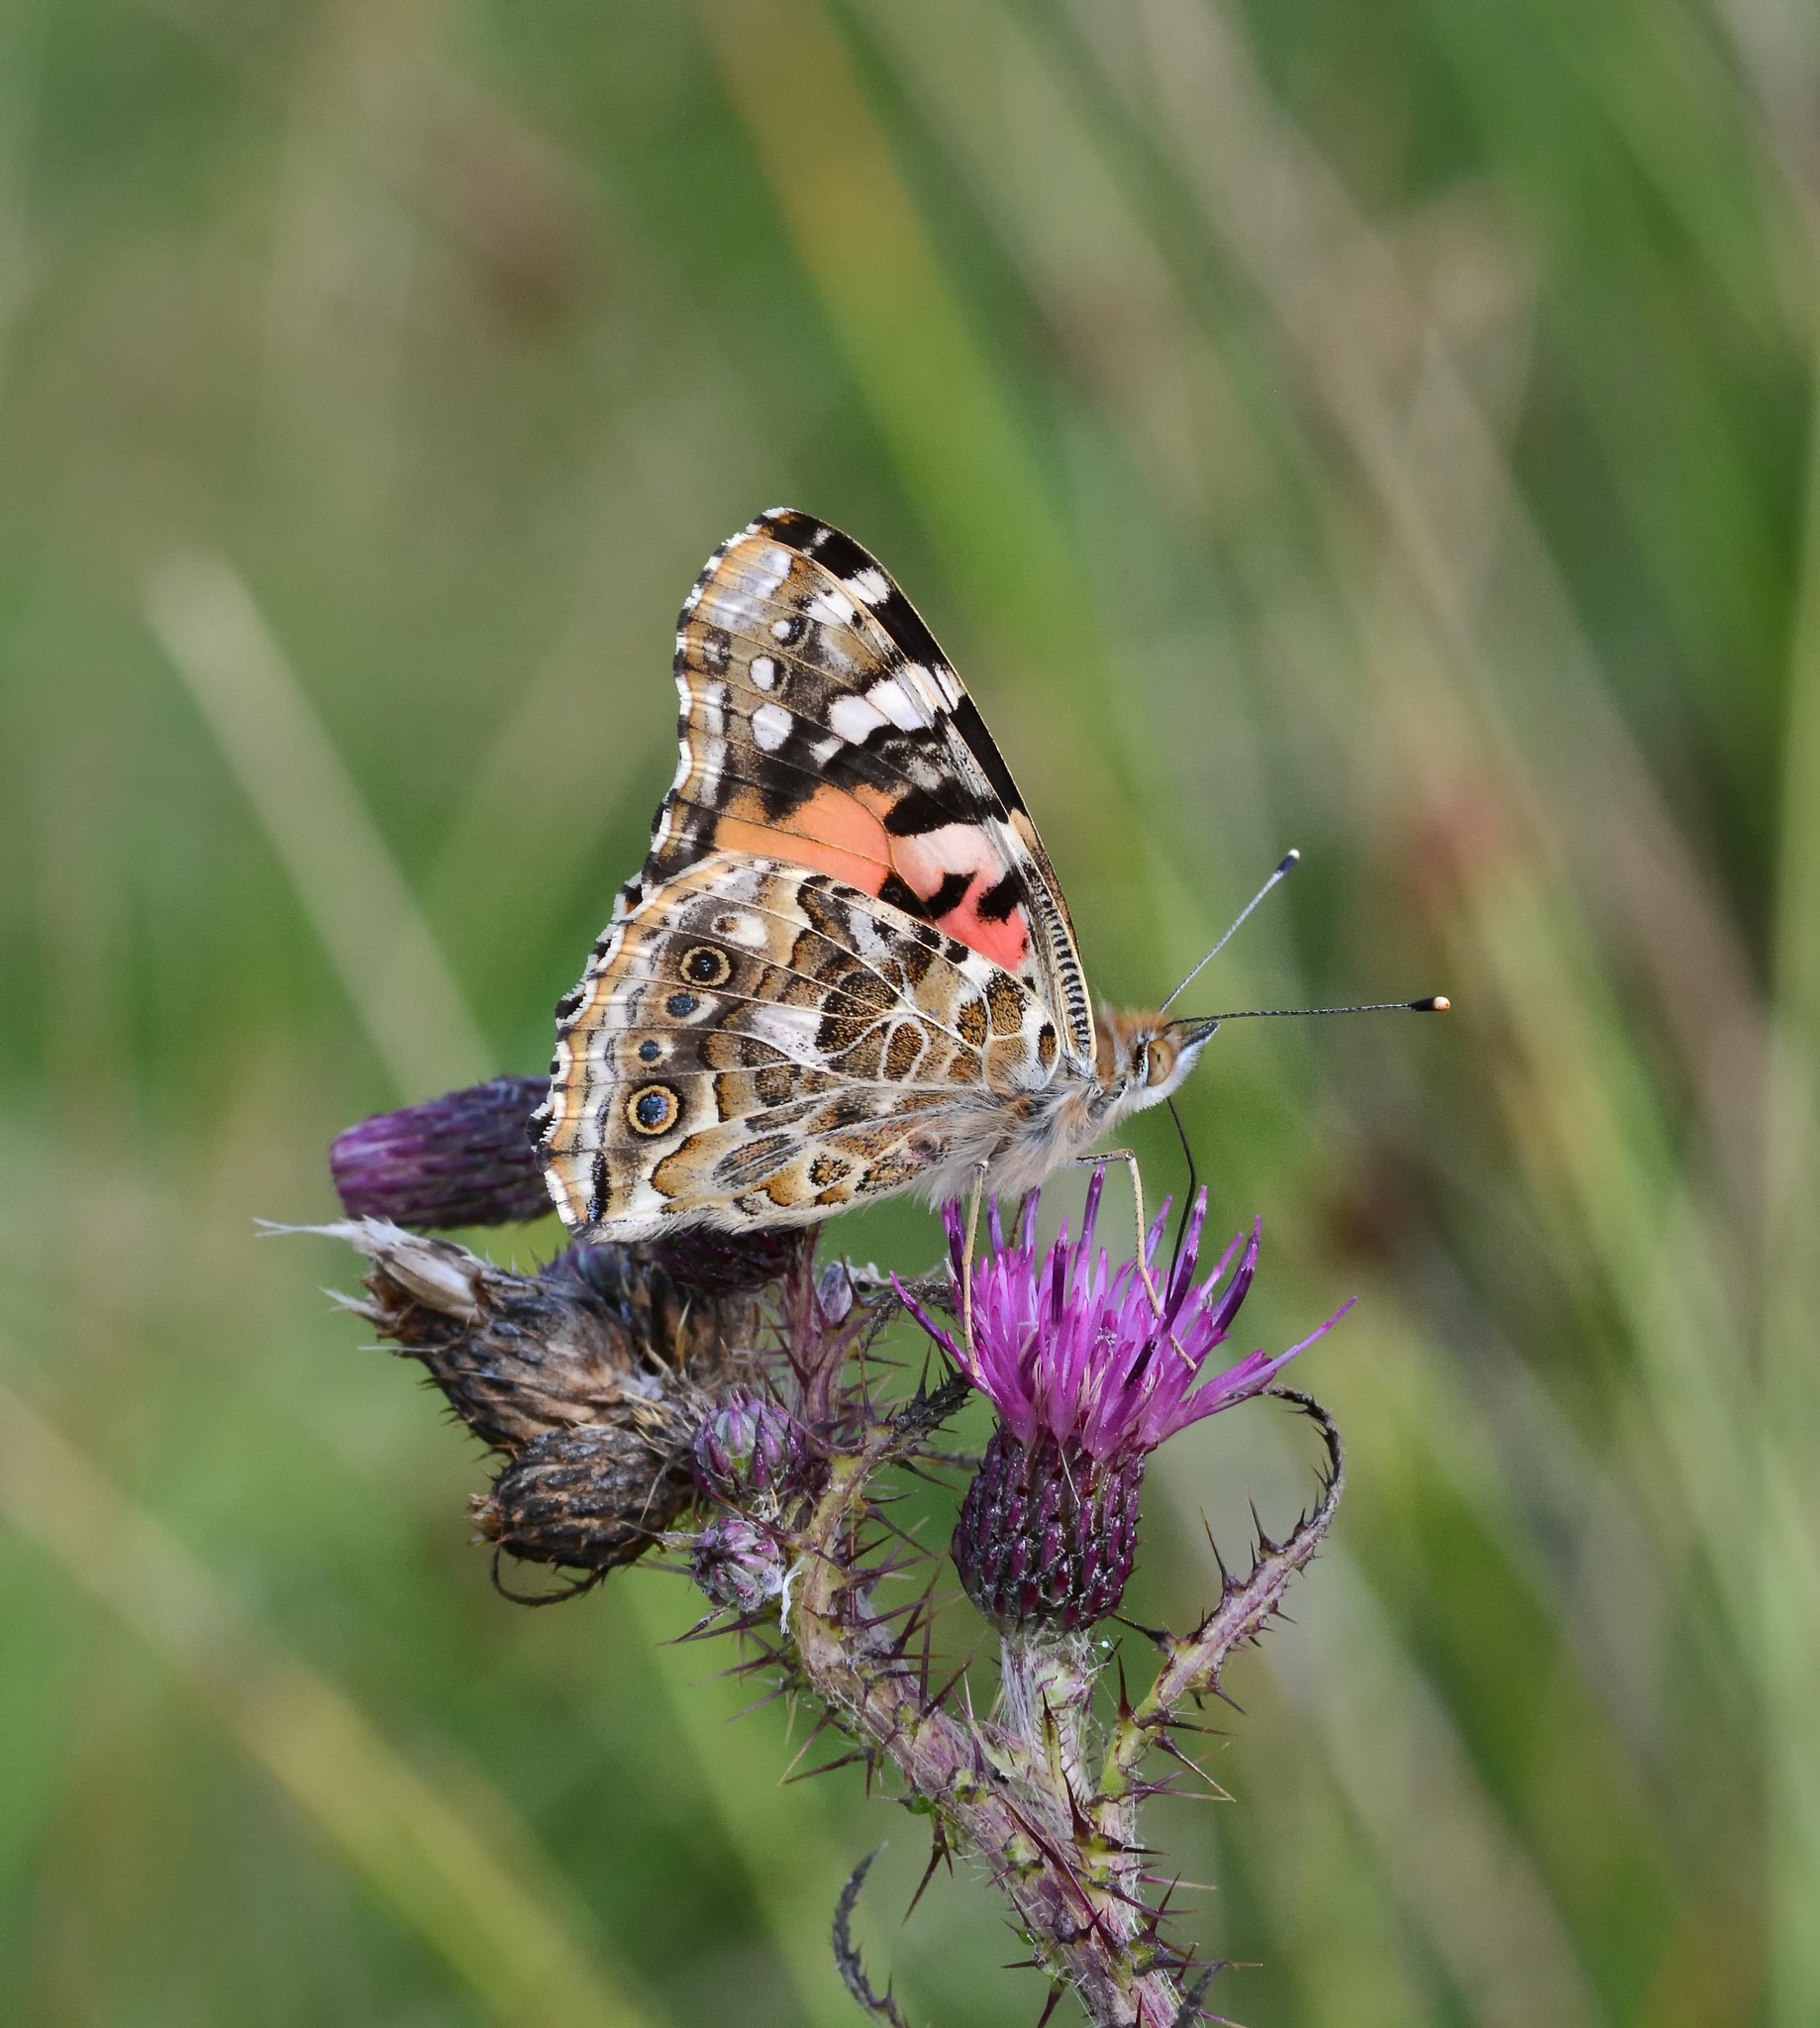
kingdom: Animalia
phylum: Arthropoda
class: Insecta
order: Lepidoptera
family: Nymphalidae
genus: Vanessa
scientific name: Vanessa cardui
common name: Painted lady
